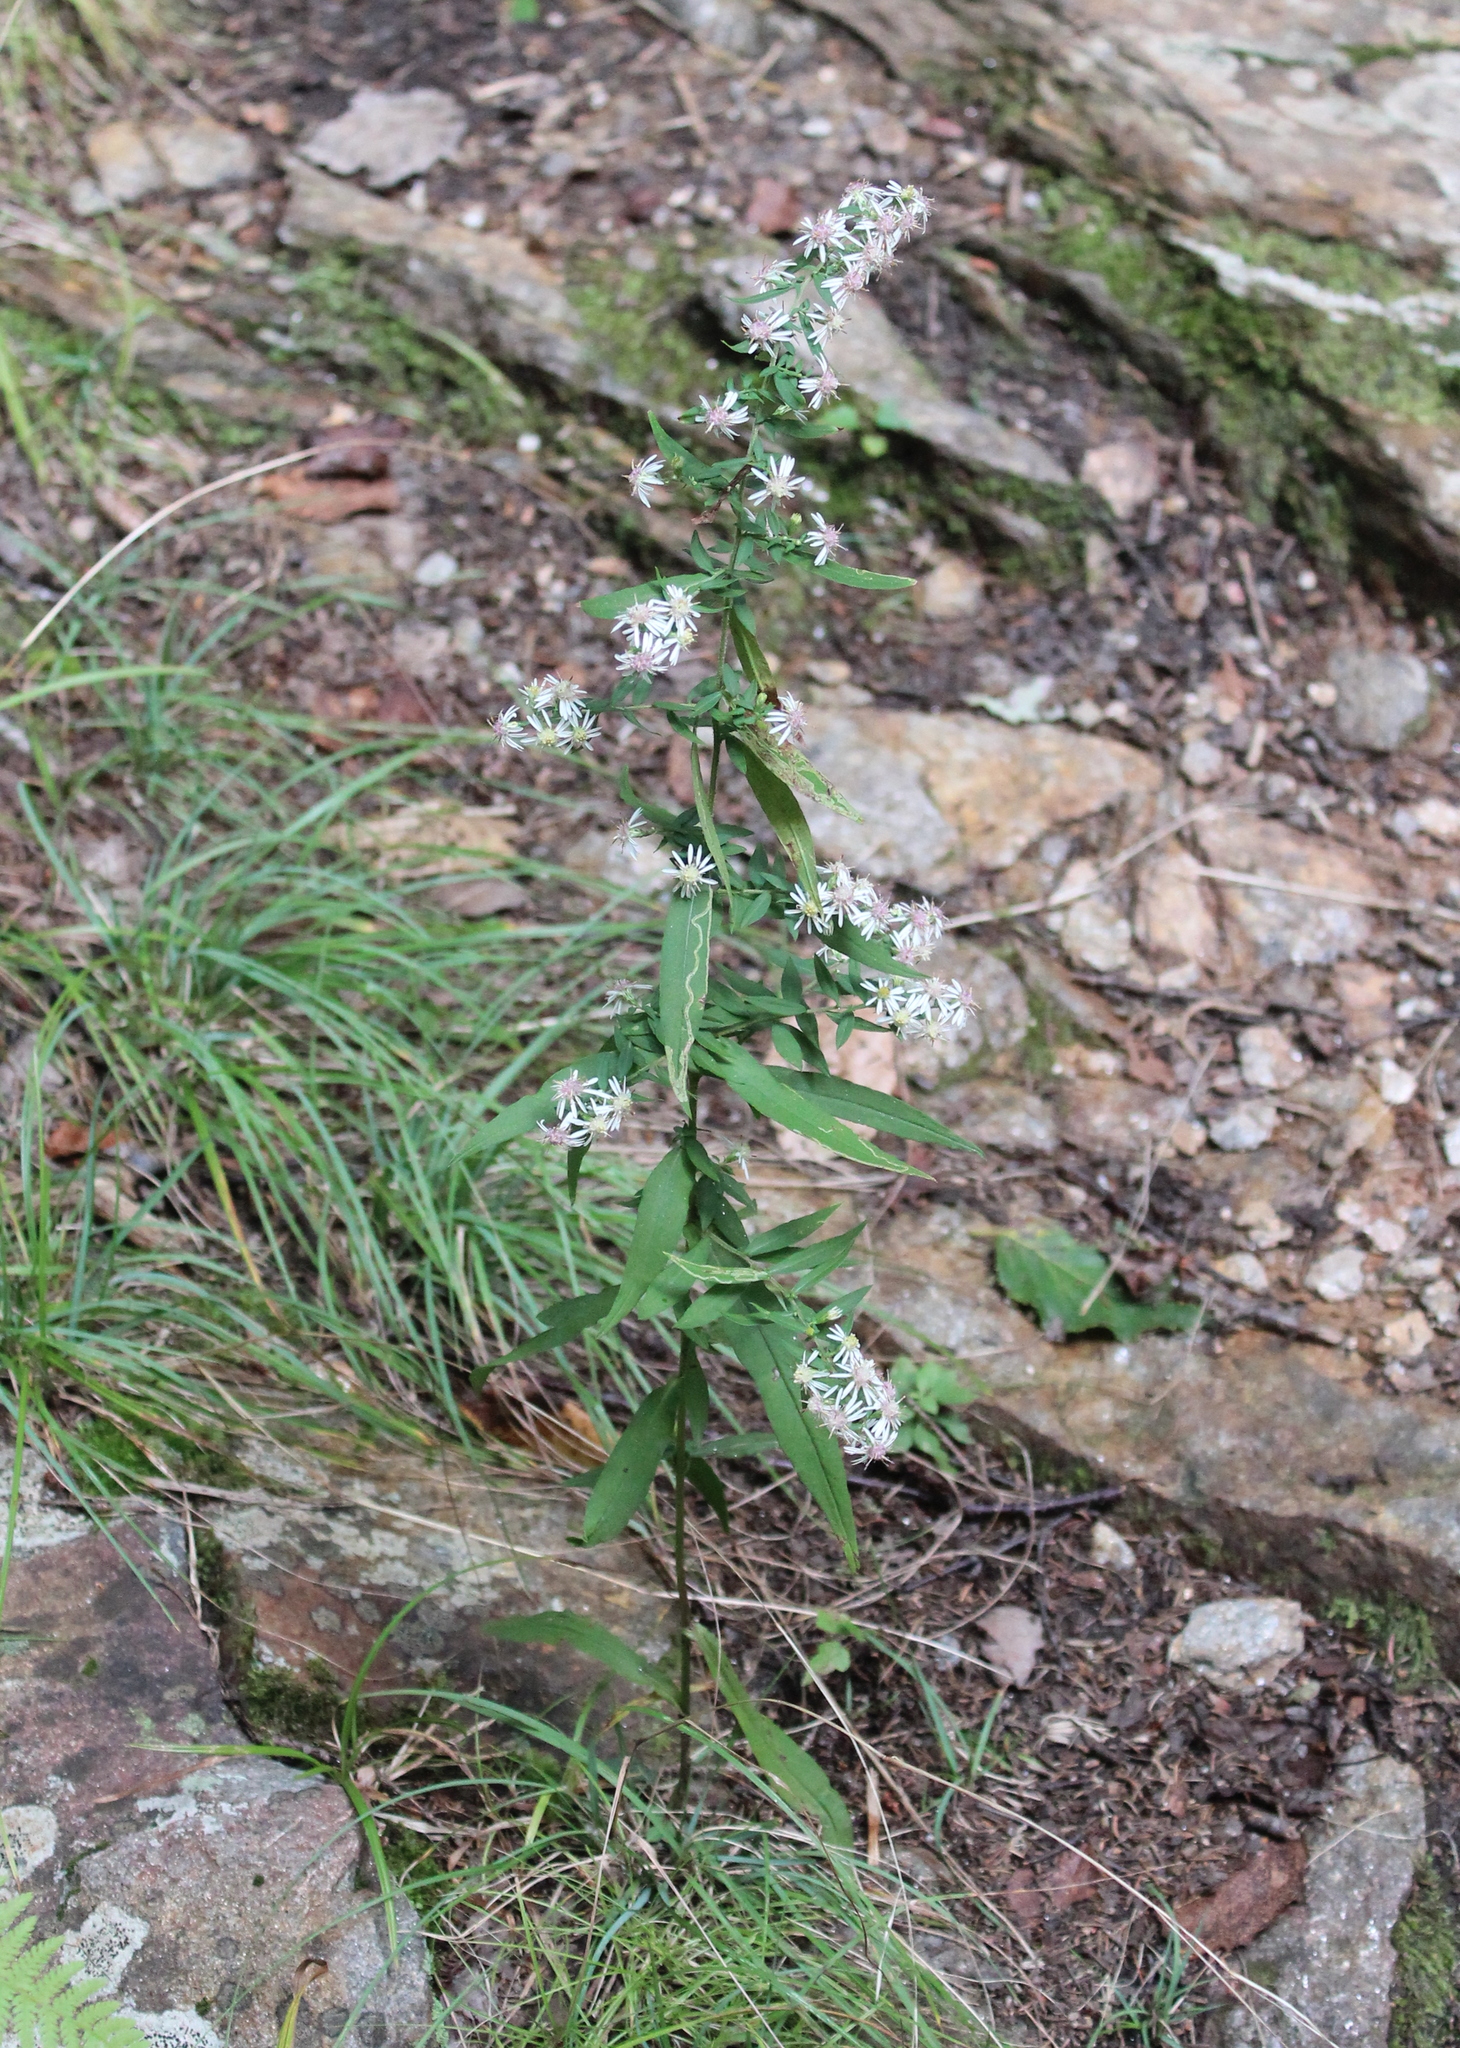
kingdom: Plantae
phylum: Tracheophyta
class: Magnoliopsida
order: Asterales
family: Asteraceae
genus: Symphyotrichum
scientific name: Symphyotrichum lateriflorum
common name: Calico aster
